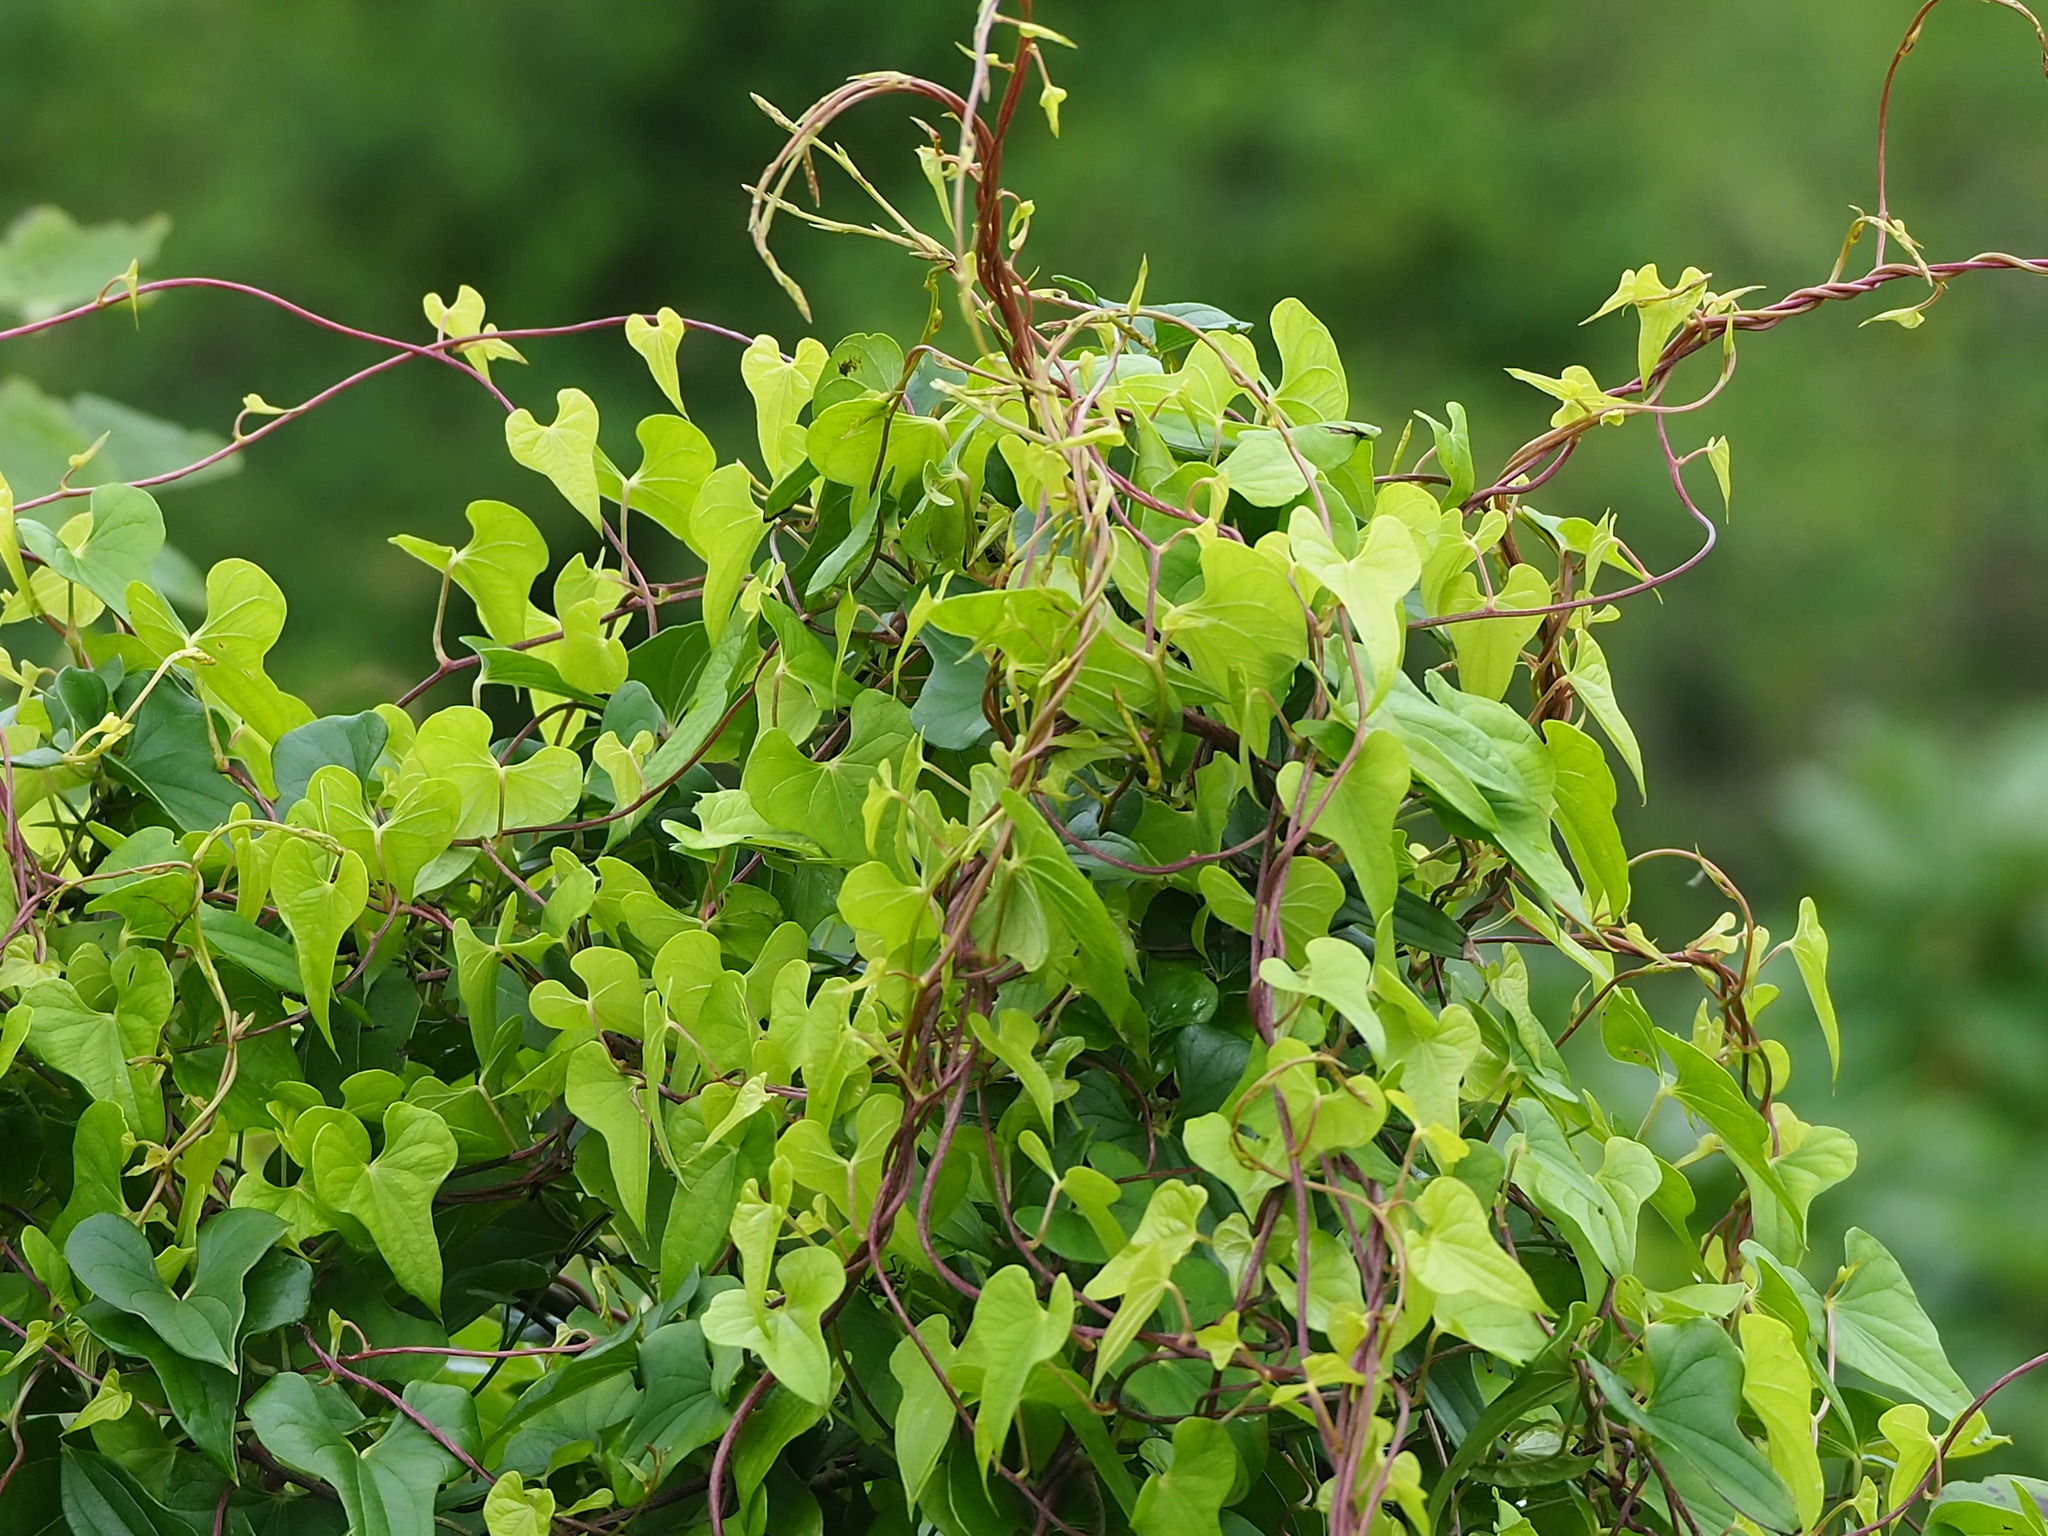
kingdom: Plantae
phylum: Tracheophyta
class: Liliopsida
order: Dioscoreales
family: Dioscoreaceae
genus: Dioscorea
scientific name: Dioscorea polystachya
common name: Chinese yam
